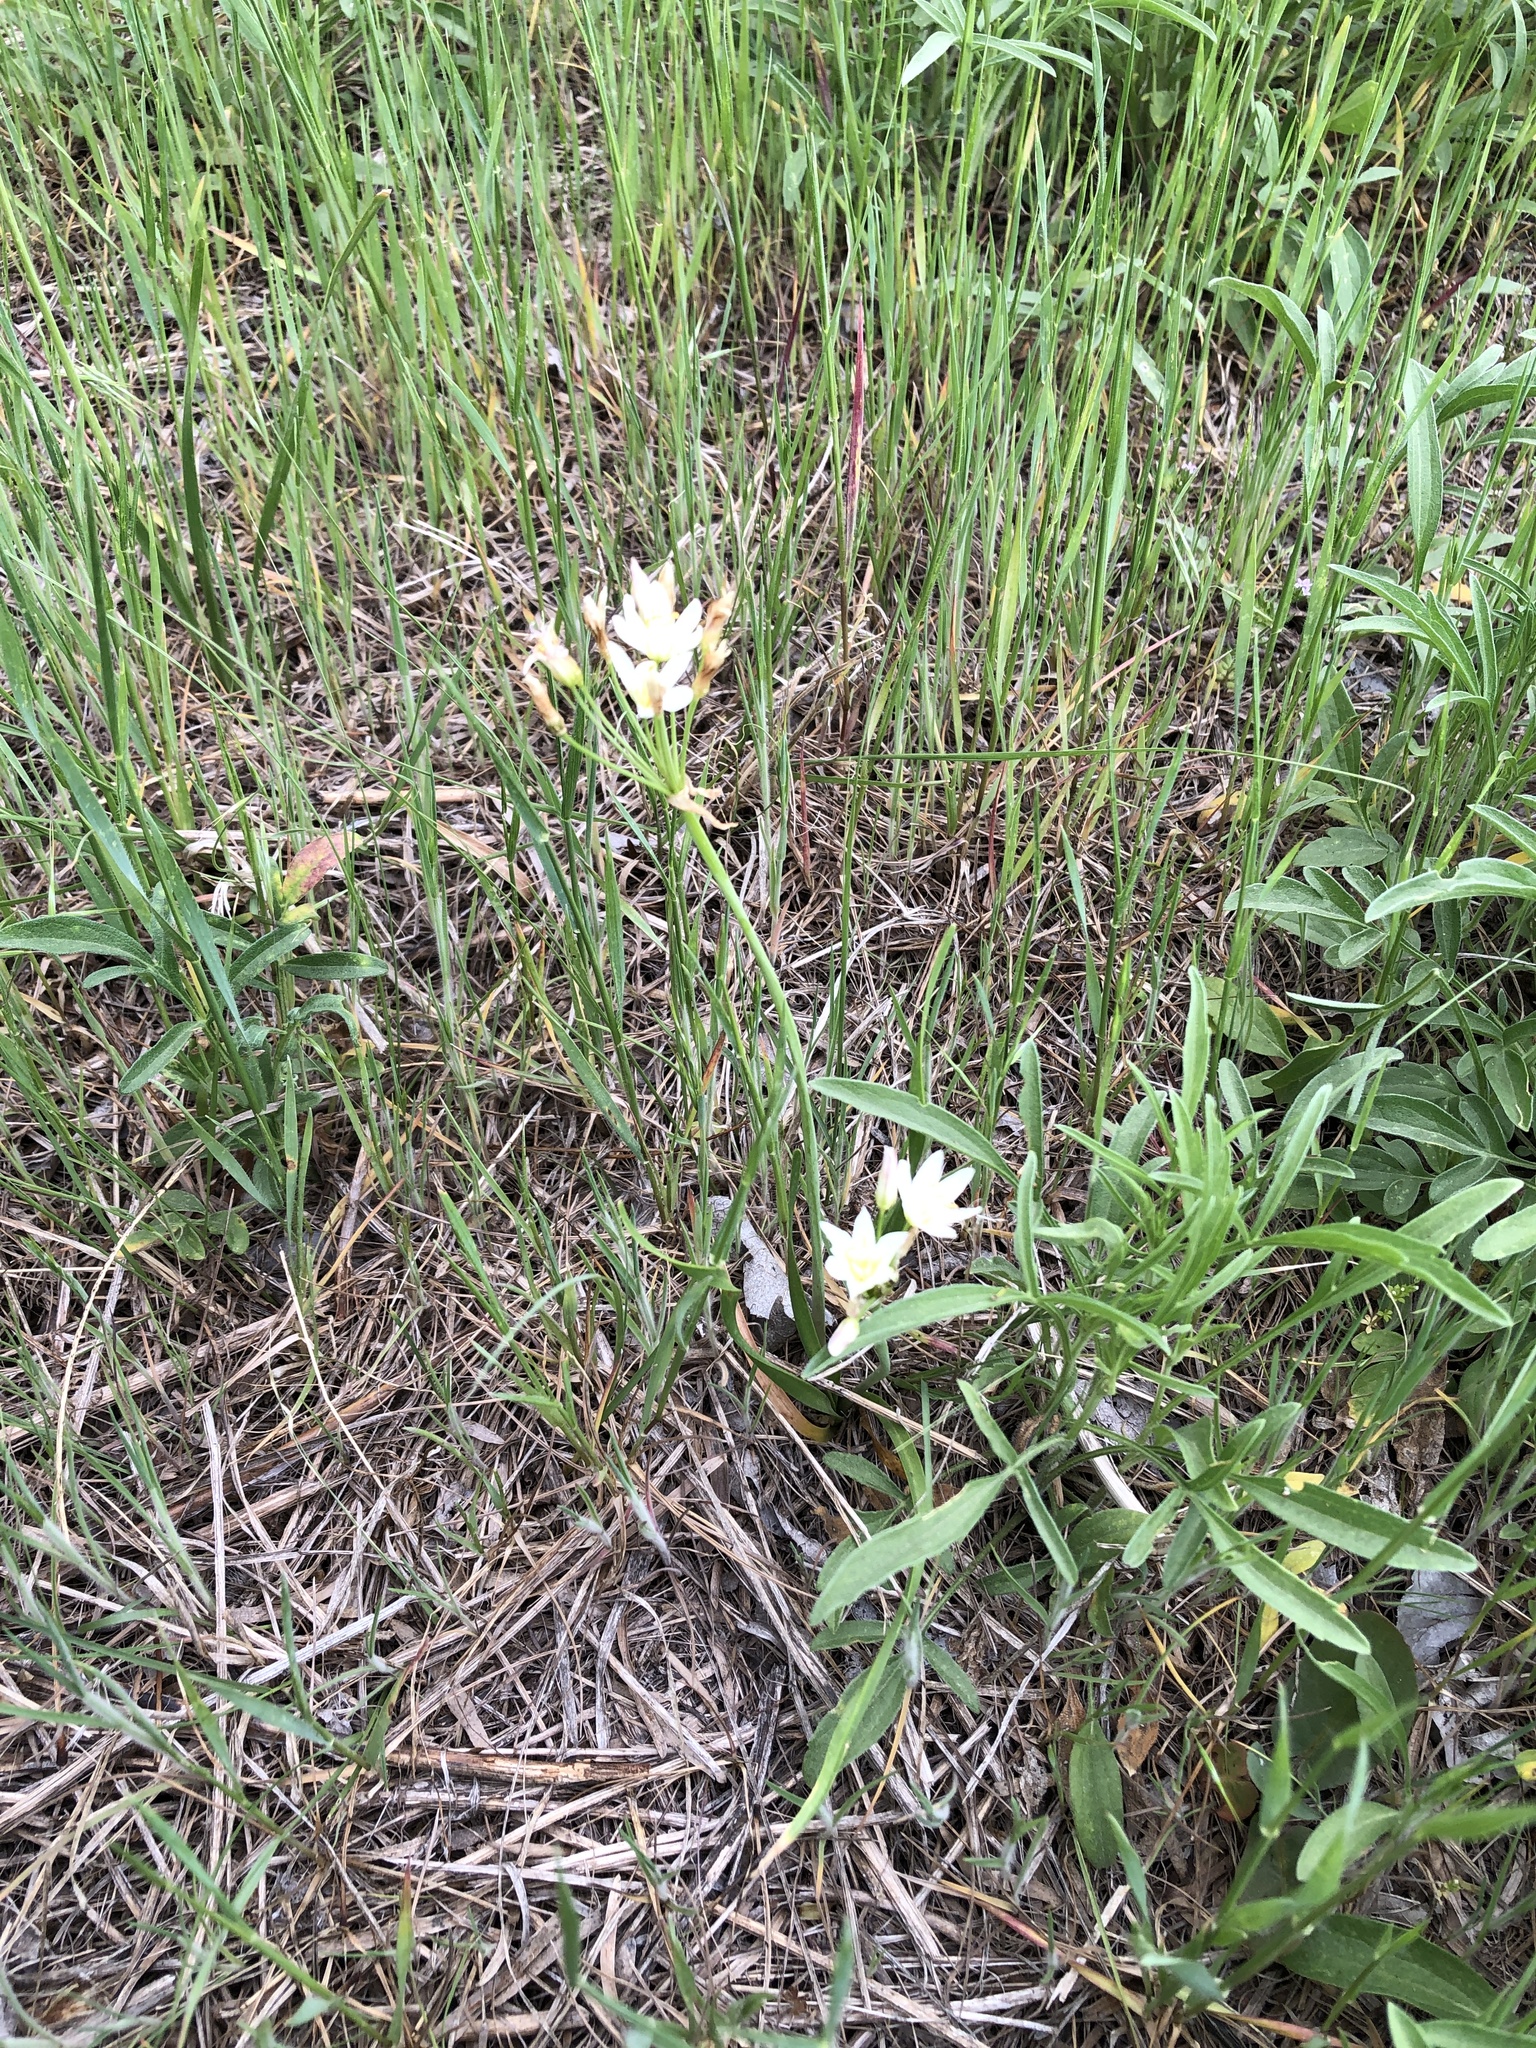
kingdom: Plantae
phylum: Tracheophyta
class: Liliopsida
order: Asparagales
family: Amaryllidaceae
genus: Nothoscordum
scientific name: Nothoscordum bivalve
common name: Crow-poison
